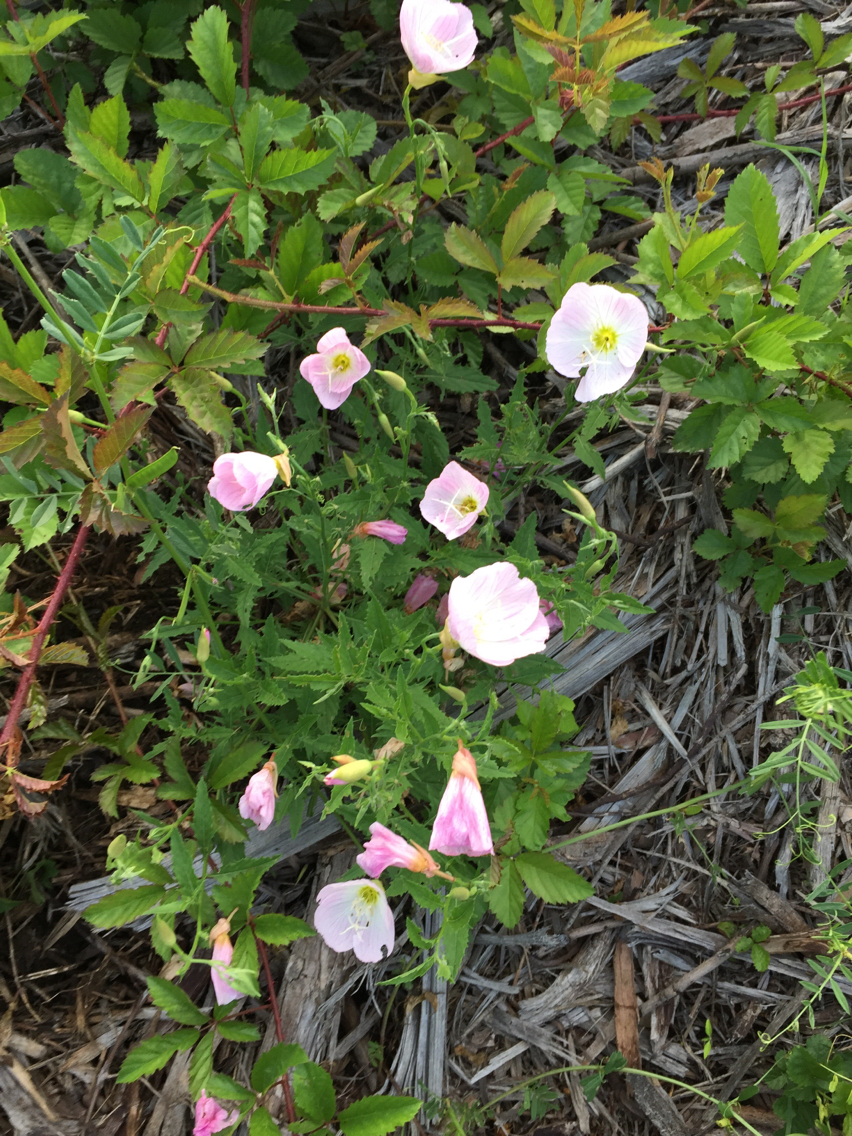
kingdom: Plantae
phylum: Tracheophyta
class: Magnoliopsida
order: Myrtales
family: Onagraceae
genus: Oenothera
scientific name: Oenothera speciosa
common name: White evening-primrose
